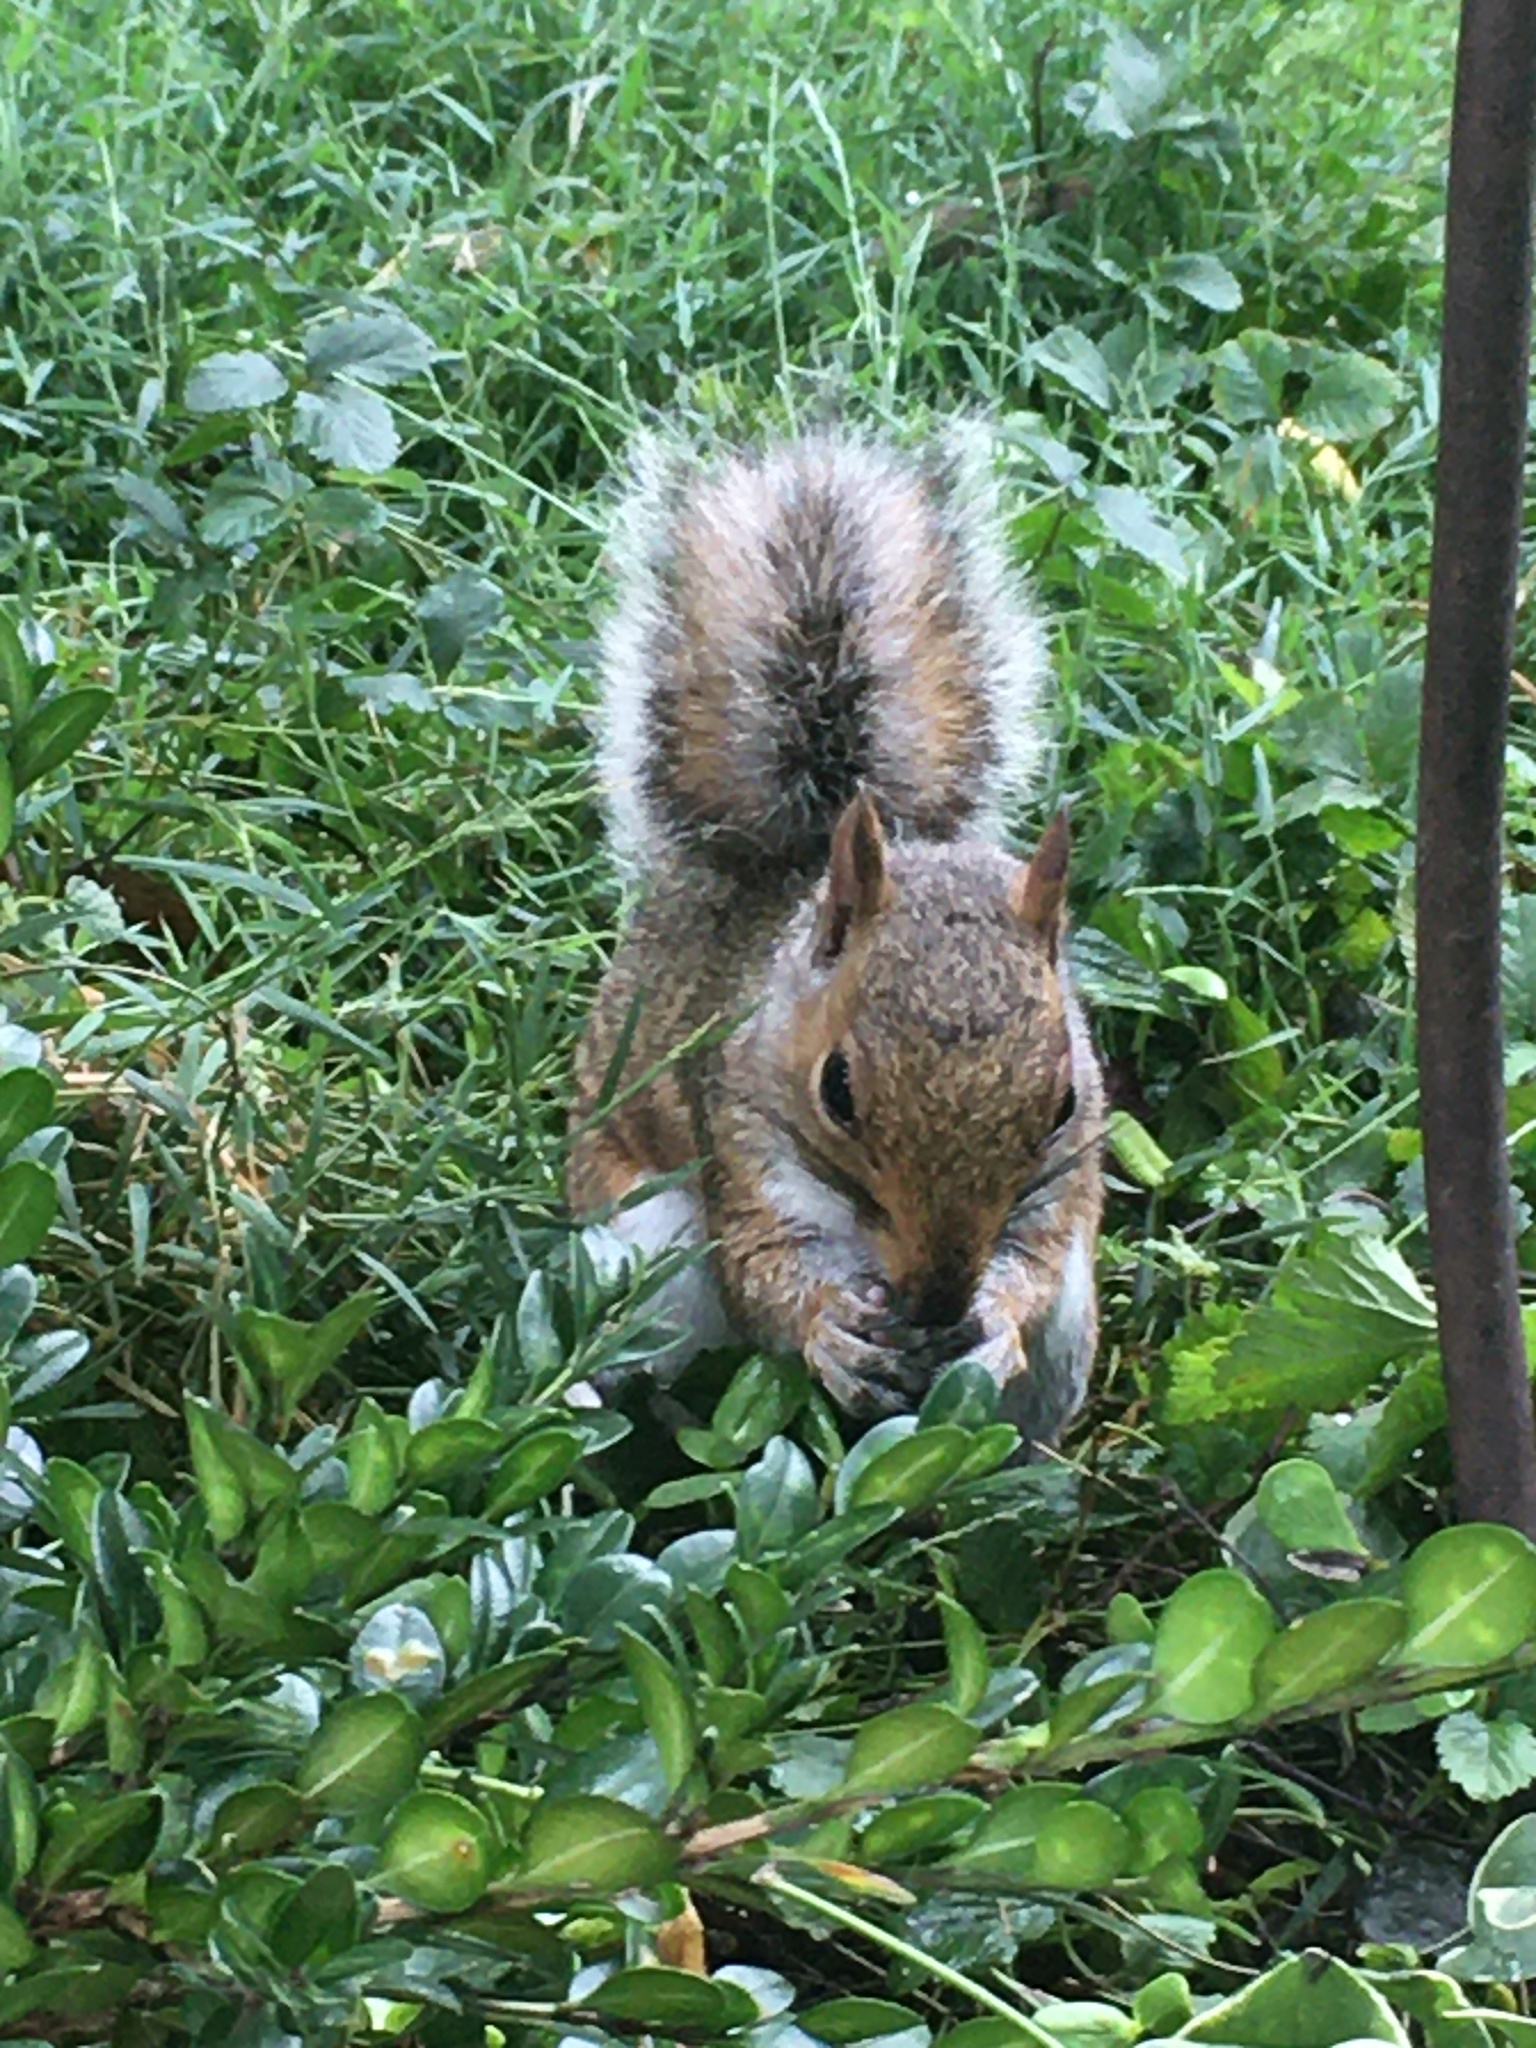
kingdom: Animalia
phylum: Chordata
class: Mammalia
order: Rodentia
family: Sciuridae
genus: Sciurus
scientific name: Sciurus carolinensis
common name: Eastern gray squirrel
